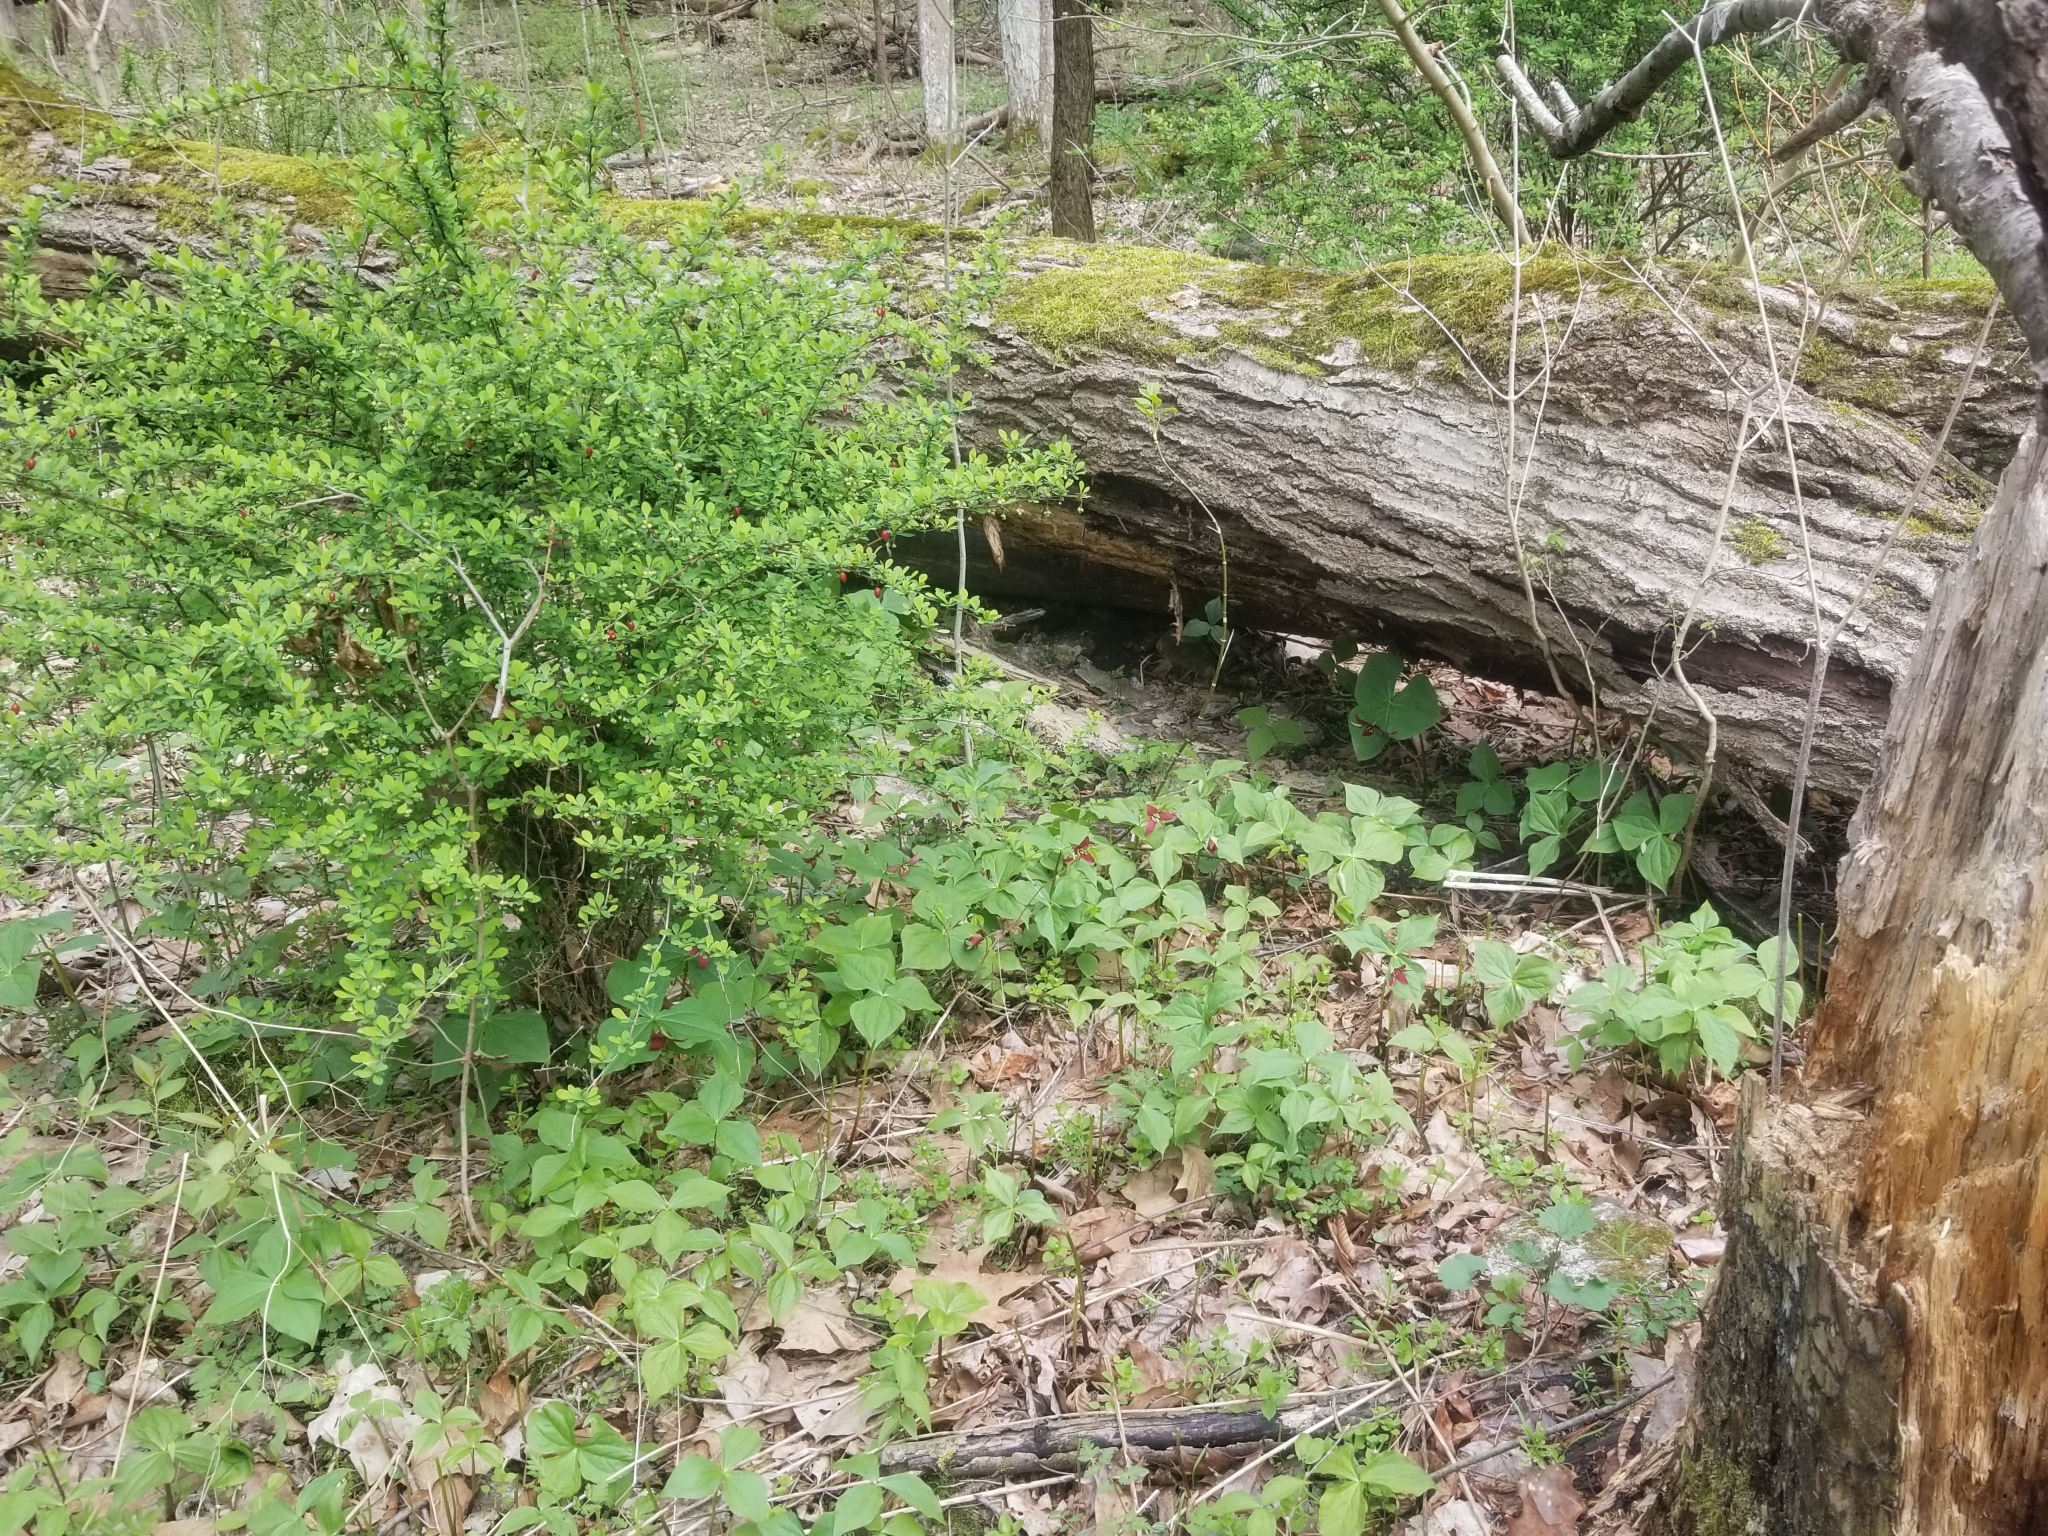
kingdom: Plantae
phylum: Tracheophyta
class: Liliopsida
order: Liliales
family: Melanthiaceae
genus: Trillium
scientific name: Trillium erectum
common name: Purple trillium
